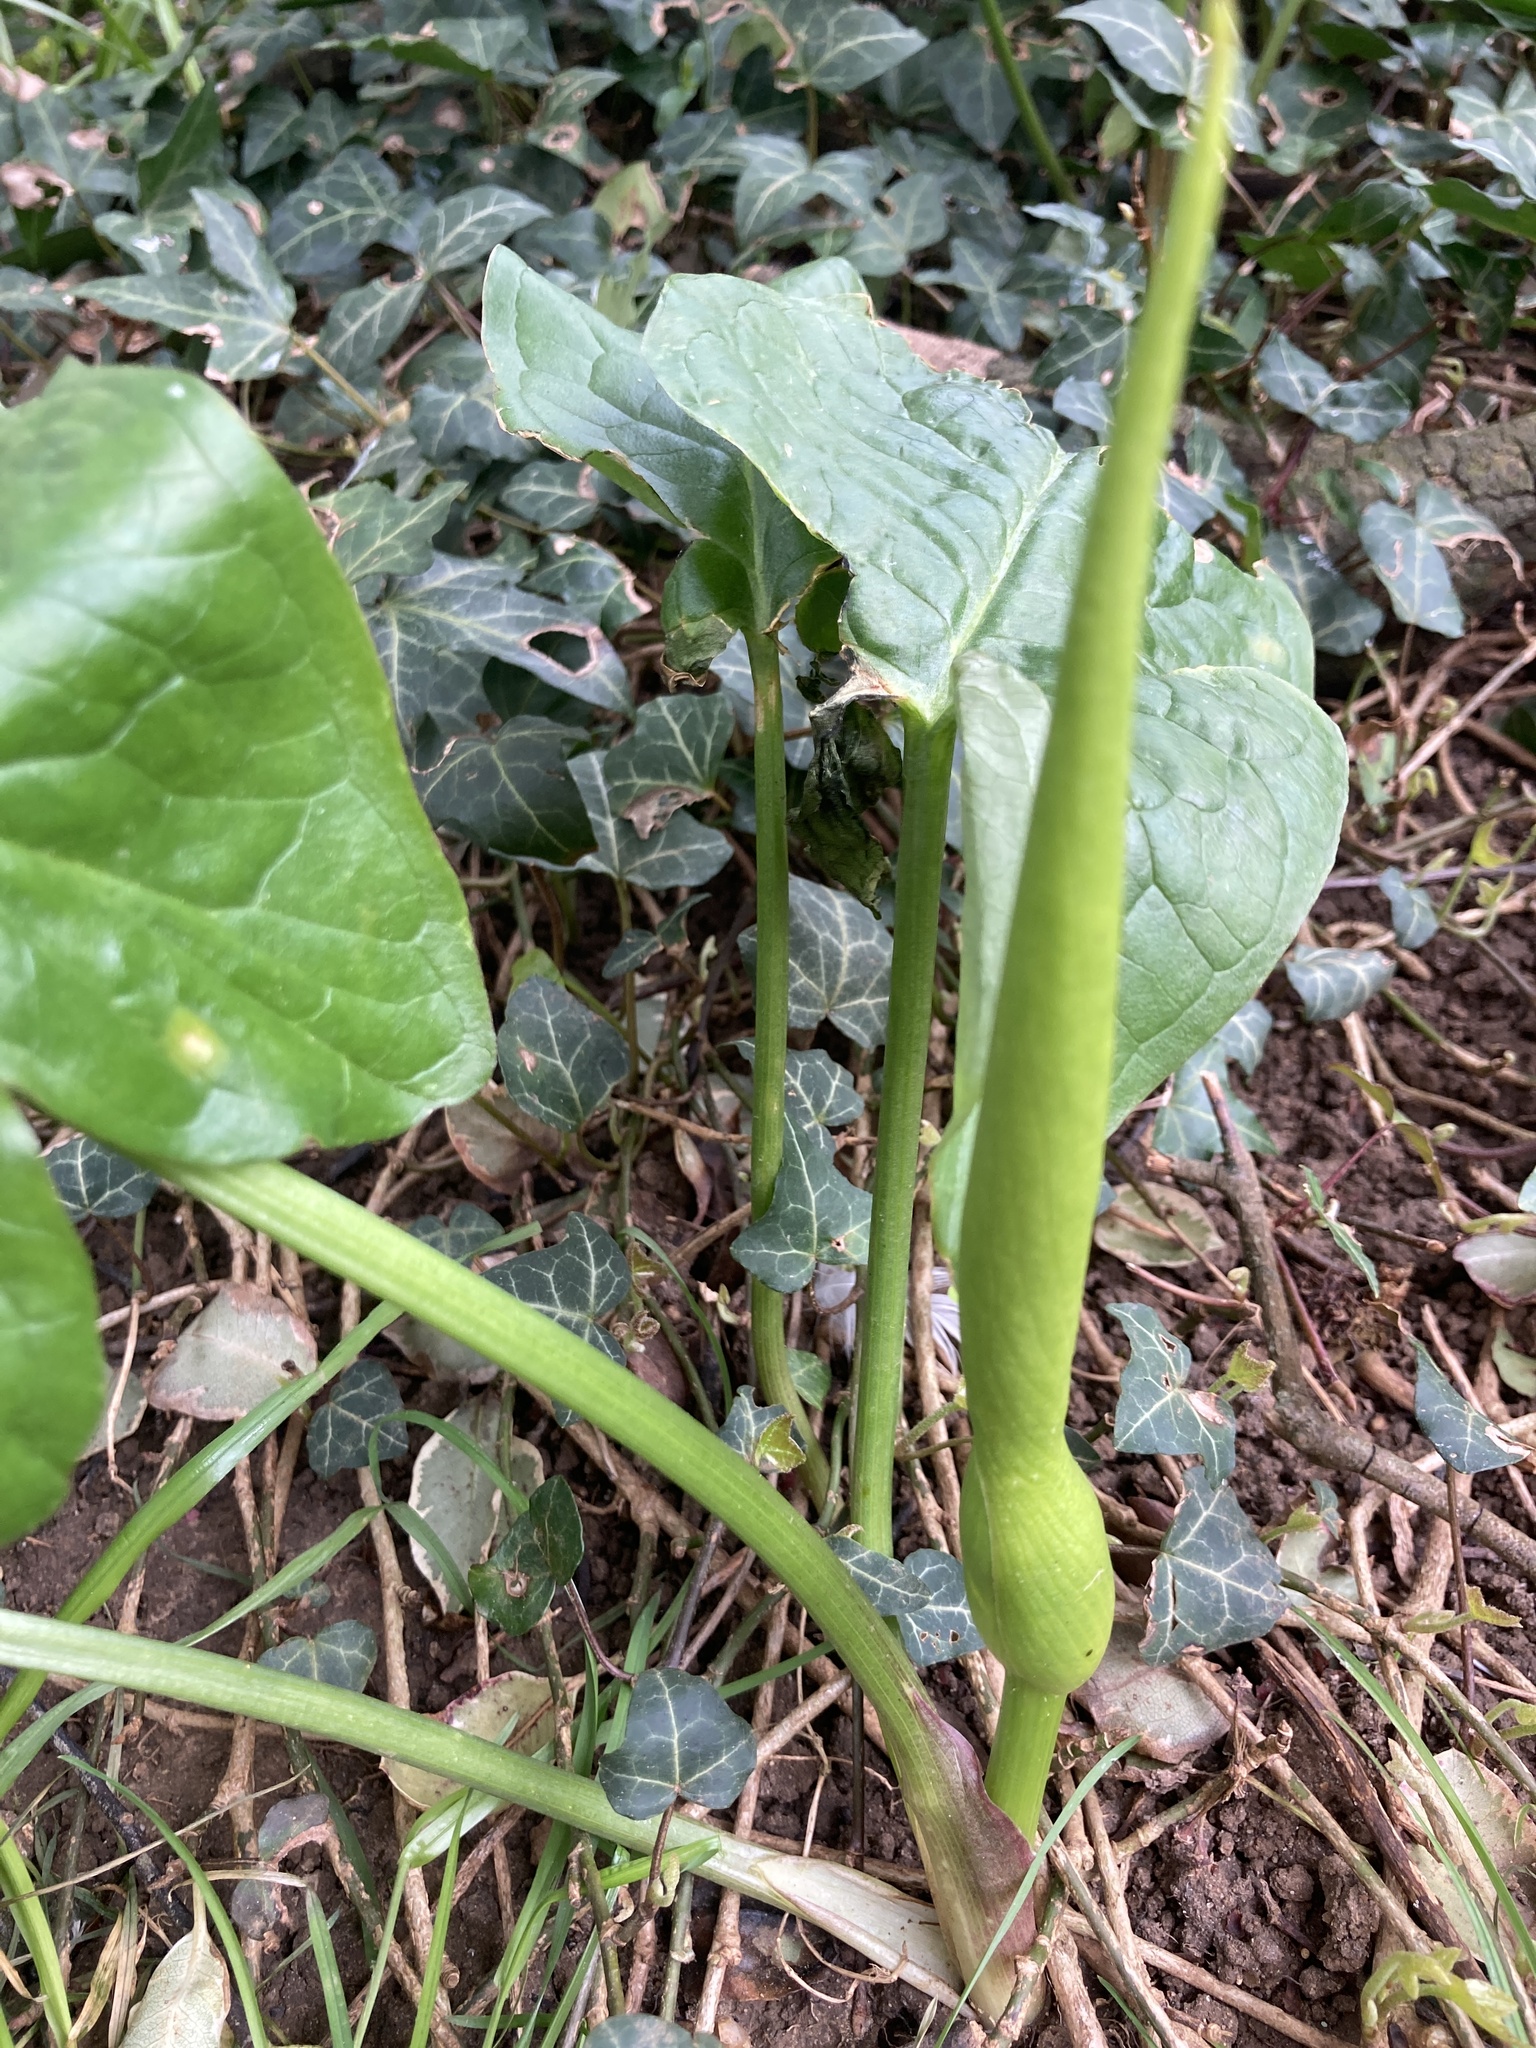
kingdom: Plantae
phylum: Tracheophyta
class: Liliopsida
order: Alismatales
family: Araceae
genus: Arum
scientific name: Arum maculatum
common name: Lords-and-ladies
